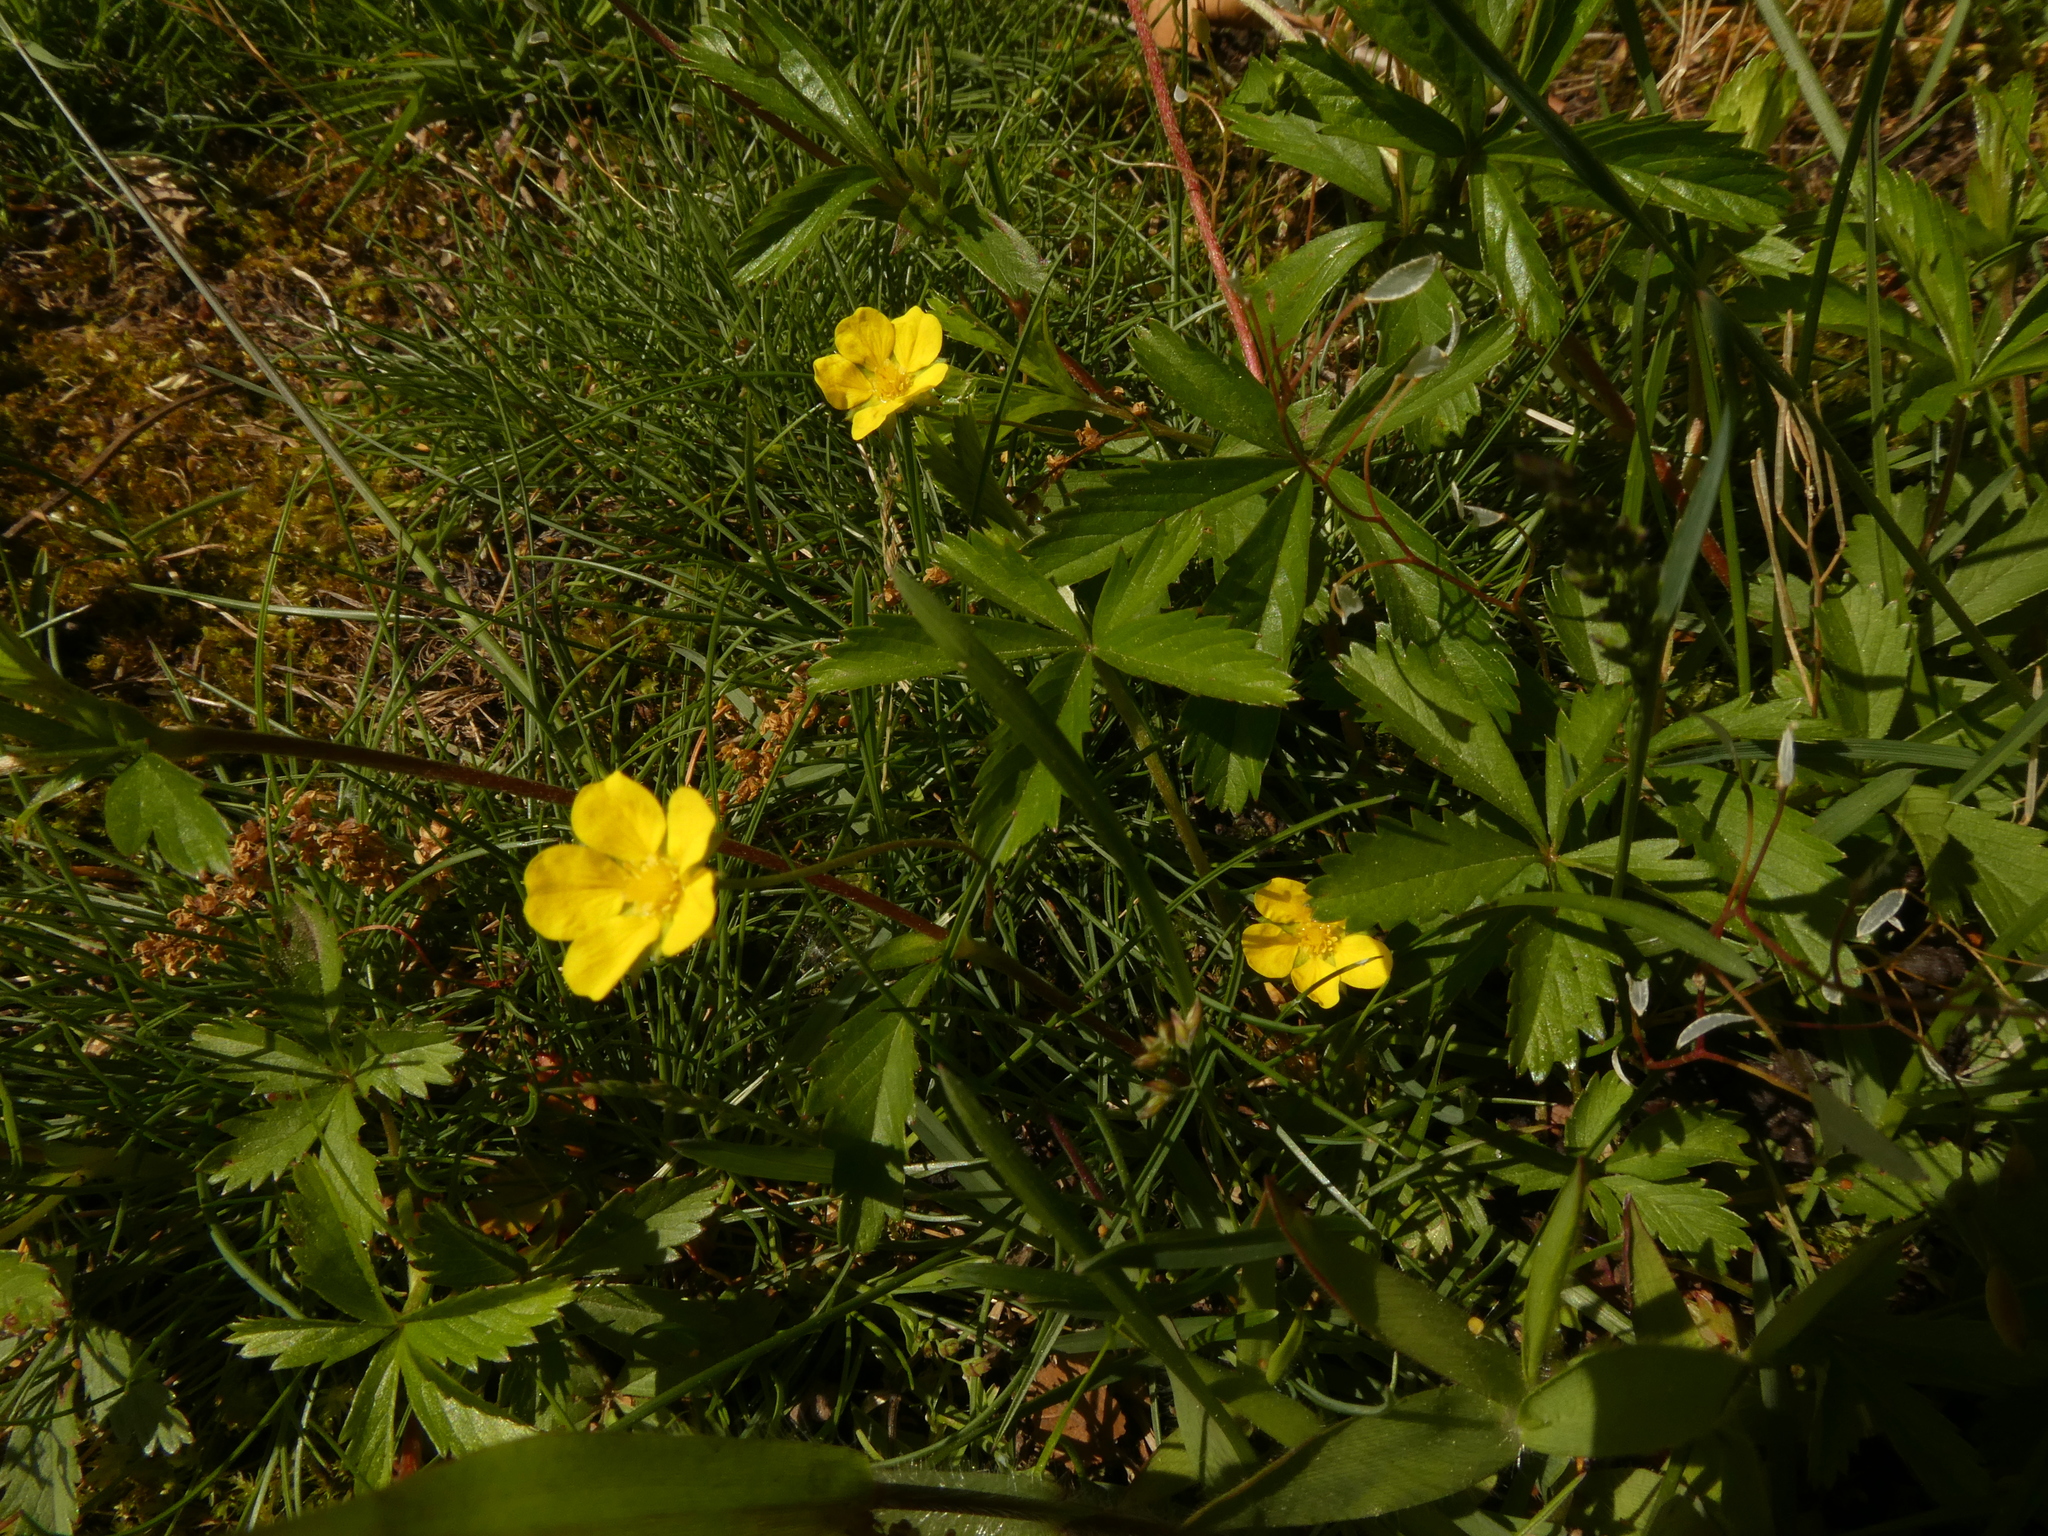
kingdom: Plantae
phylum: Tracheophyta
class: Magnoliopsida
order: Rosales
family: Rosaceae
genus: Potentilla
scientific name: Potentilla simplex
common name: Old field cinquefoil
